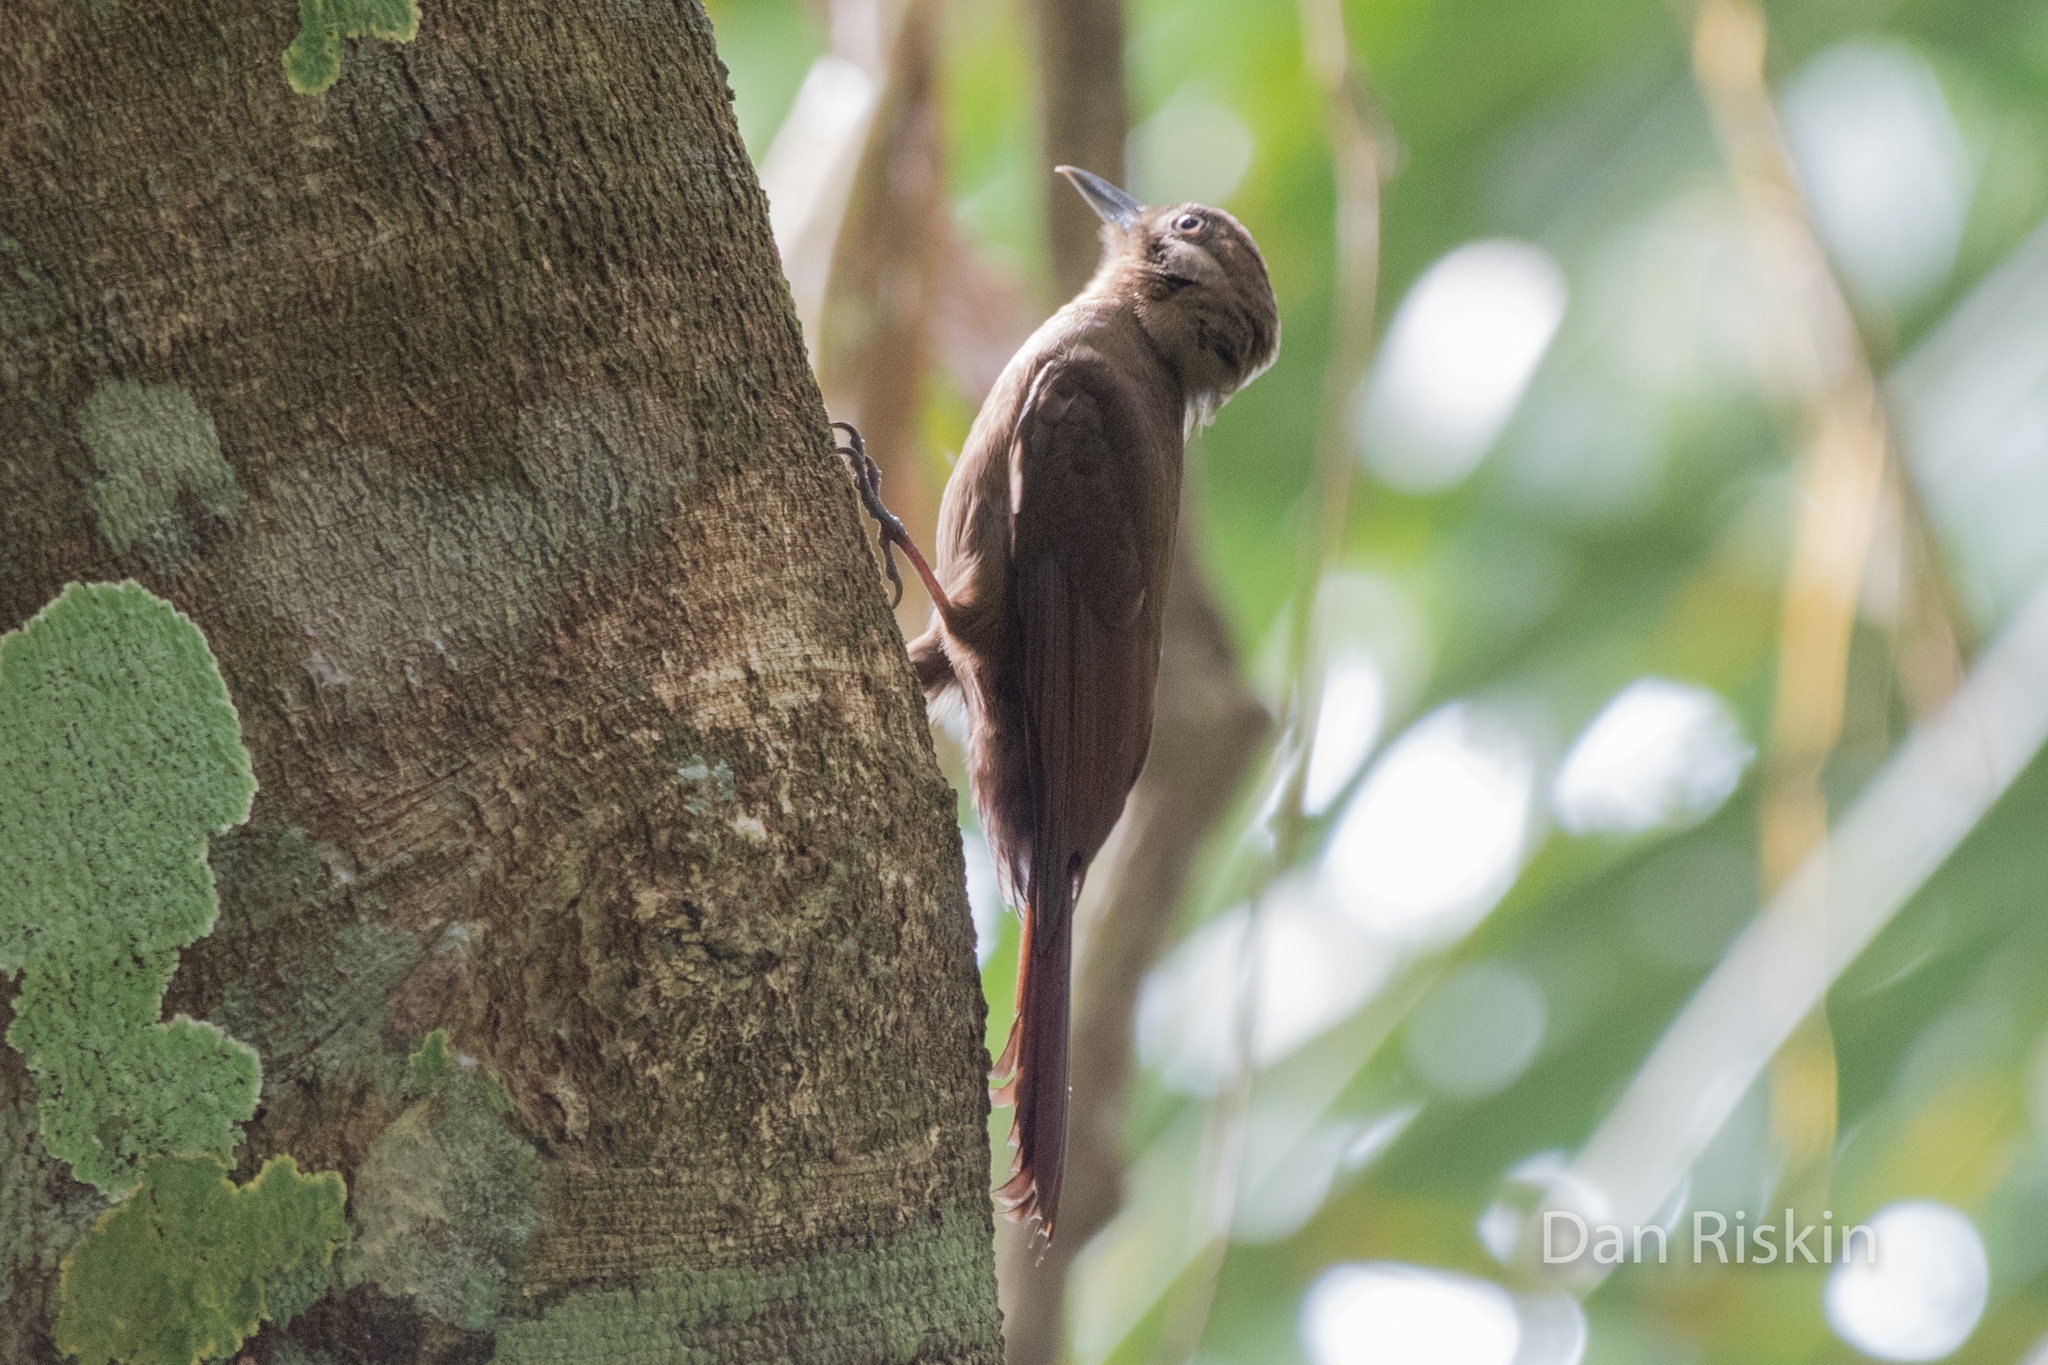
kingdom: Animalia
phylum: Chordata
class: Aves
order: Passeriformes
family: Furnariidae
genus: Dendrocincla
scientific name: Dendrocincla fuliginosa
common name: Plain-brown woodcreeper
